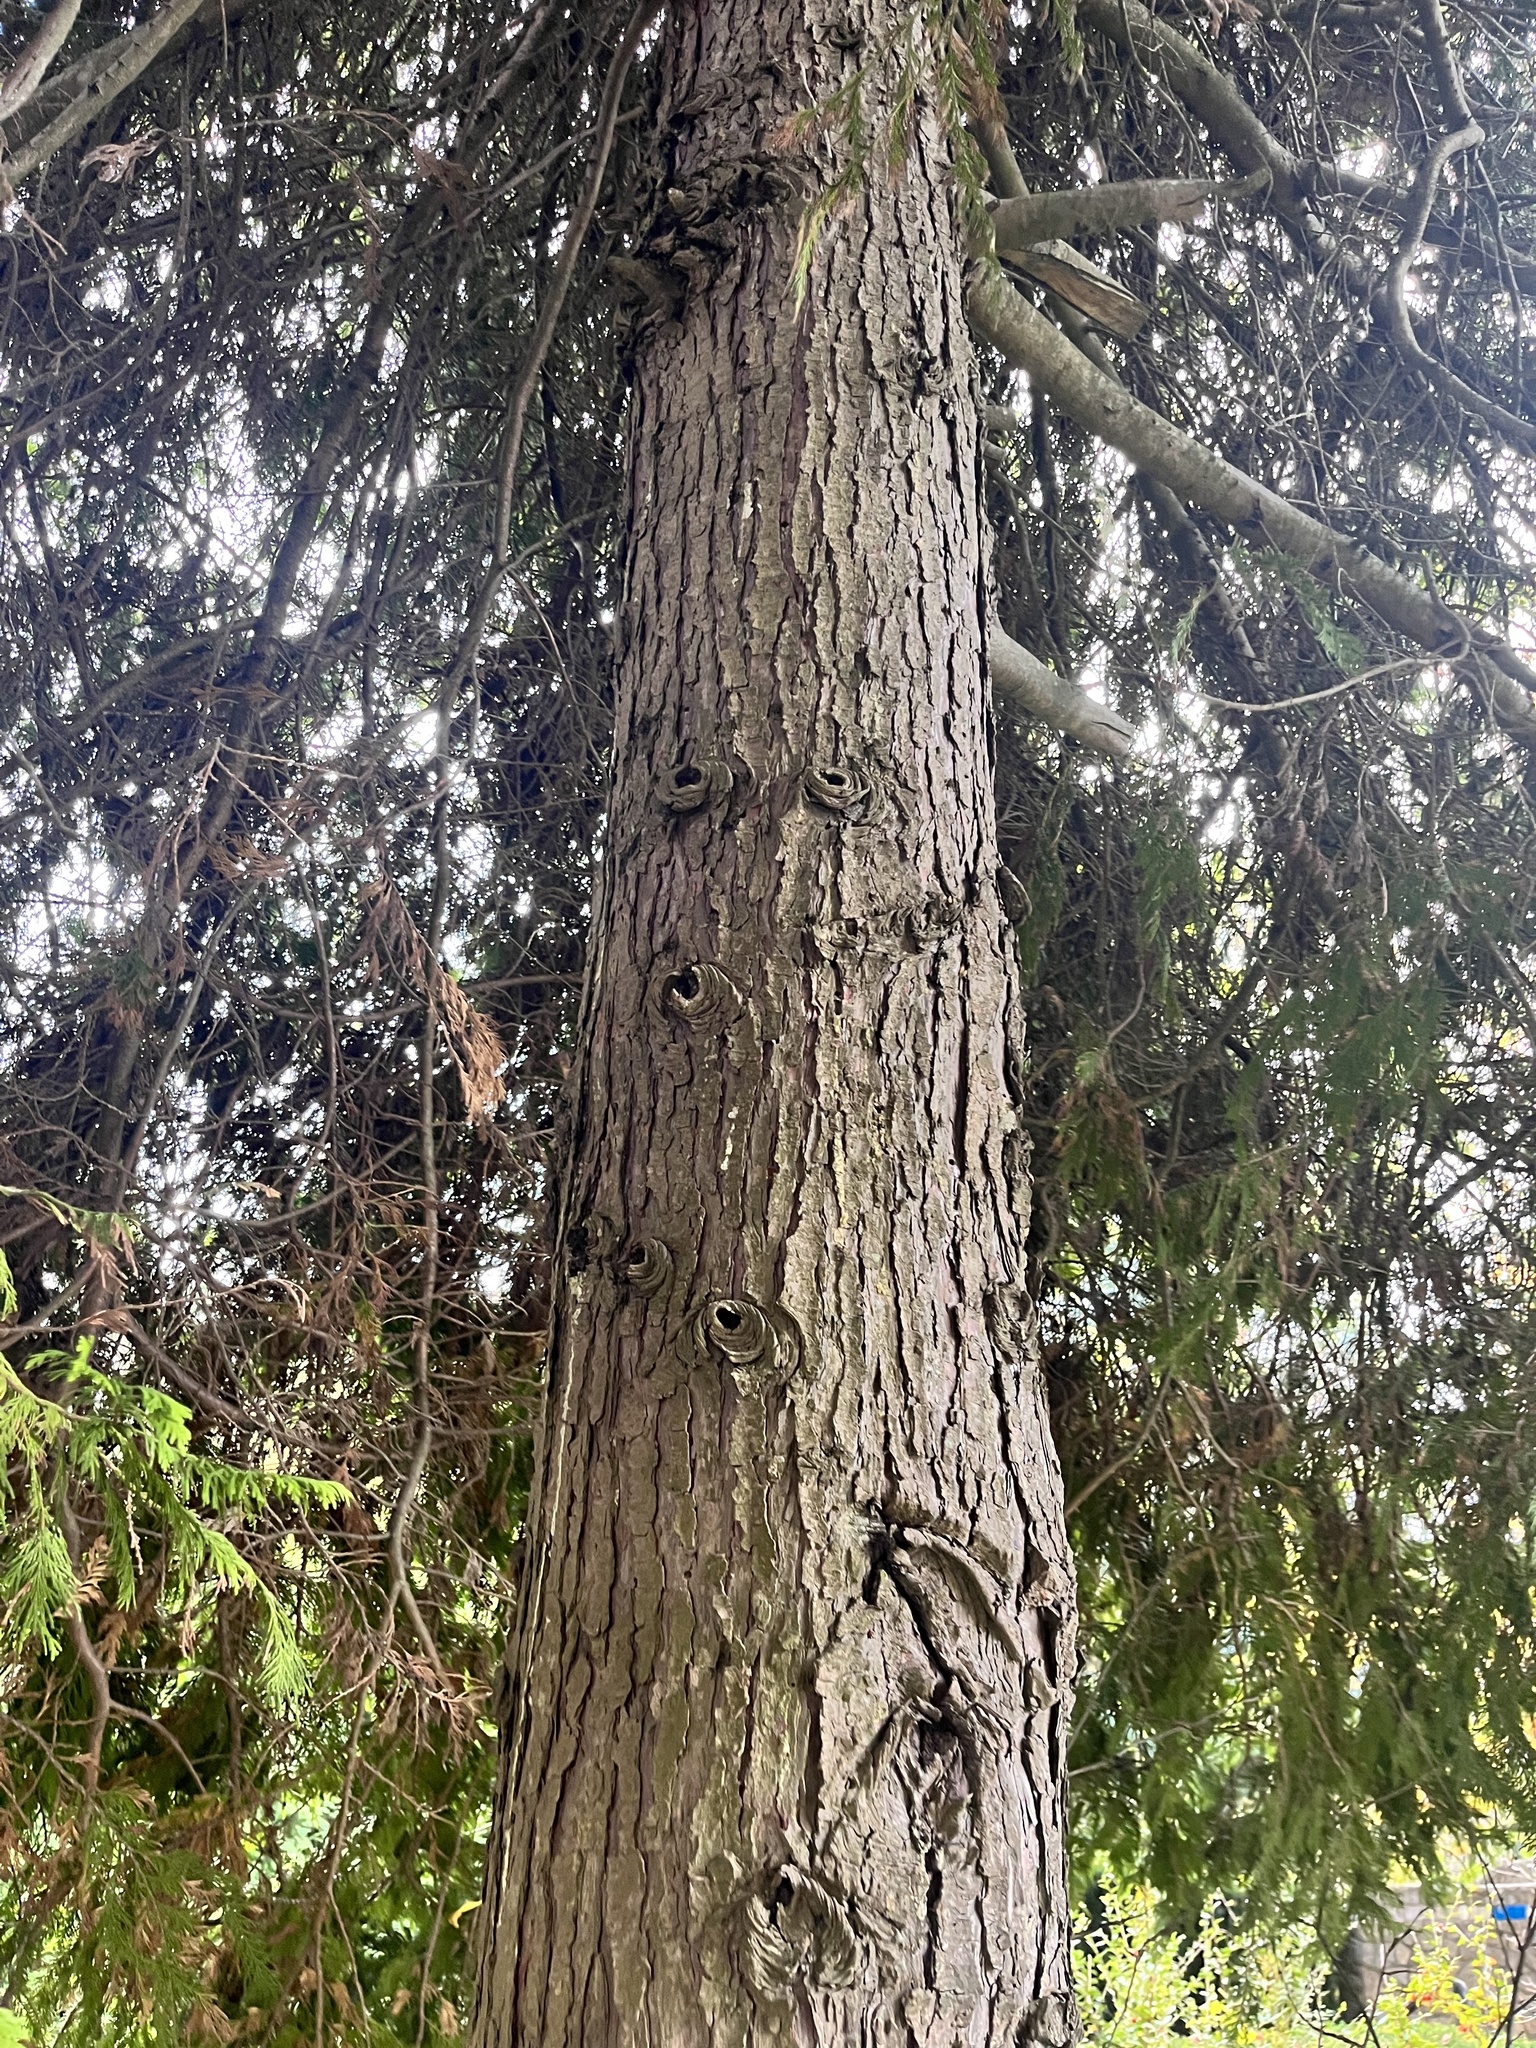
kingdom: Plantae
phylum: Tracheophyta
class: Pinopsida
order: Pinales
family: Cupressaceae
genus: Thuja
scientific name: Thuja plicata
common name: Western red-cedar
